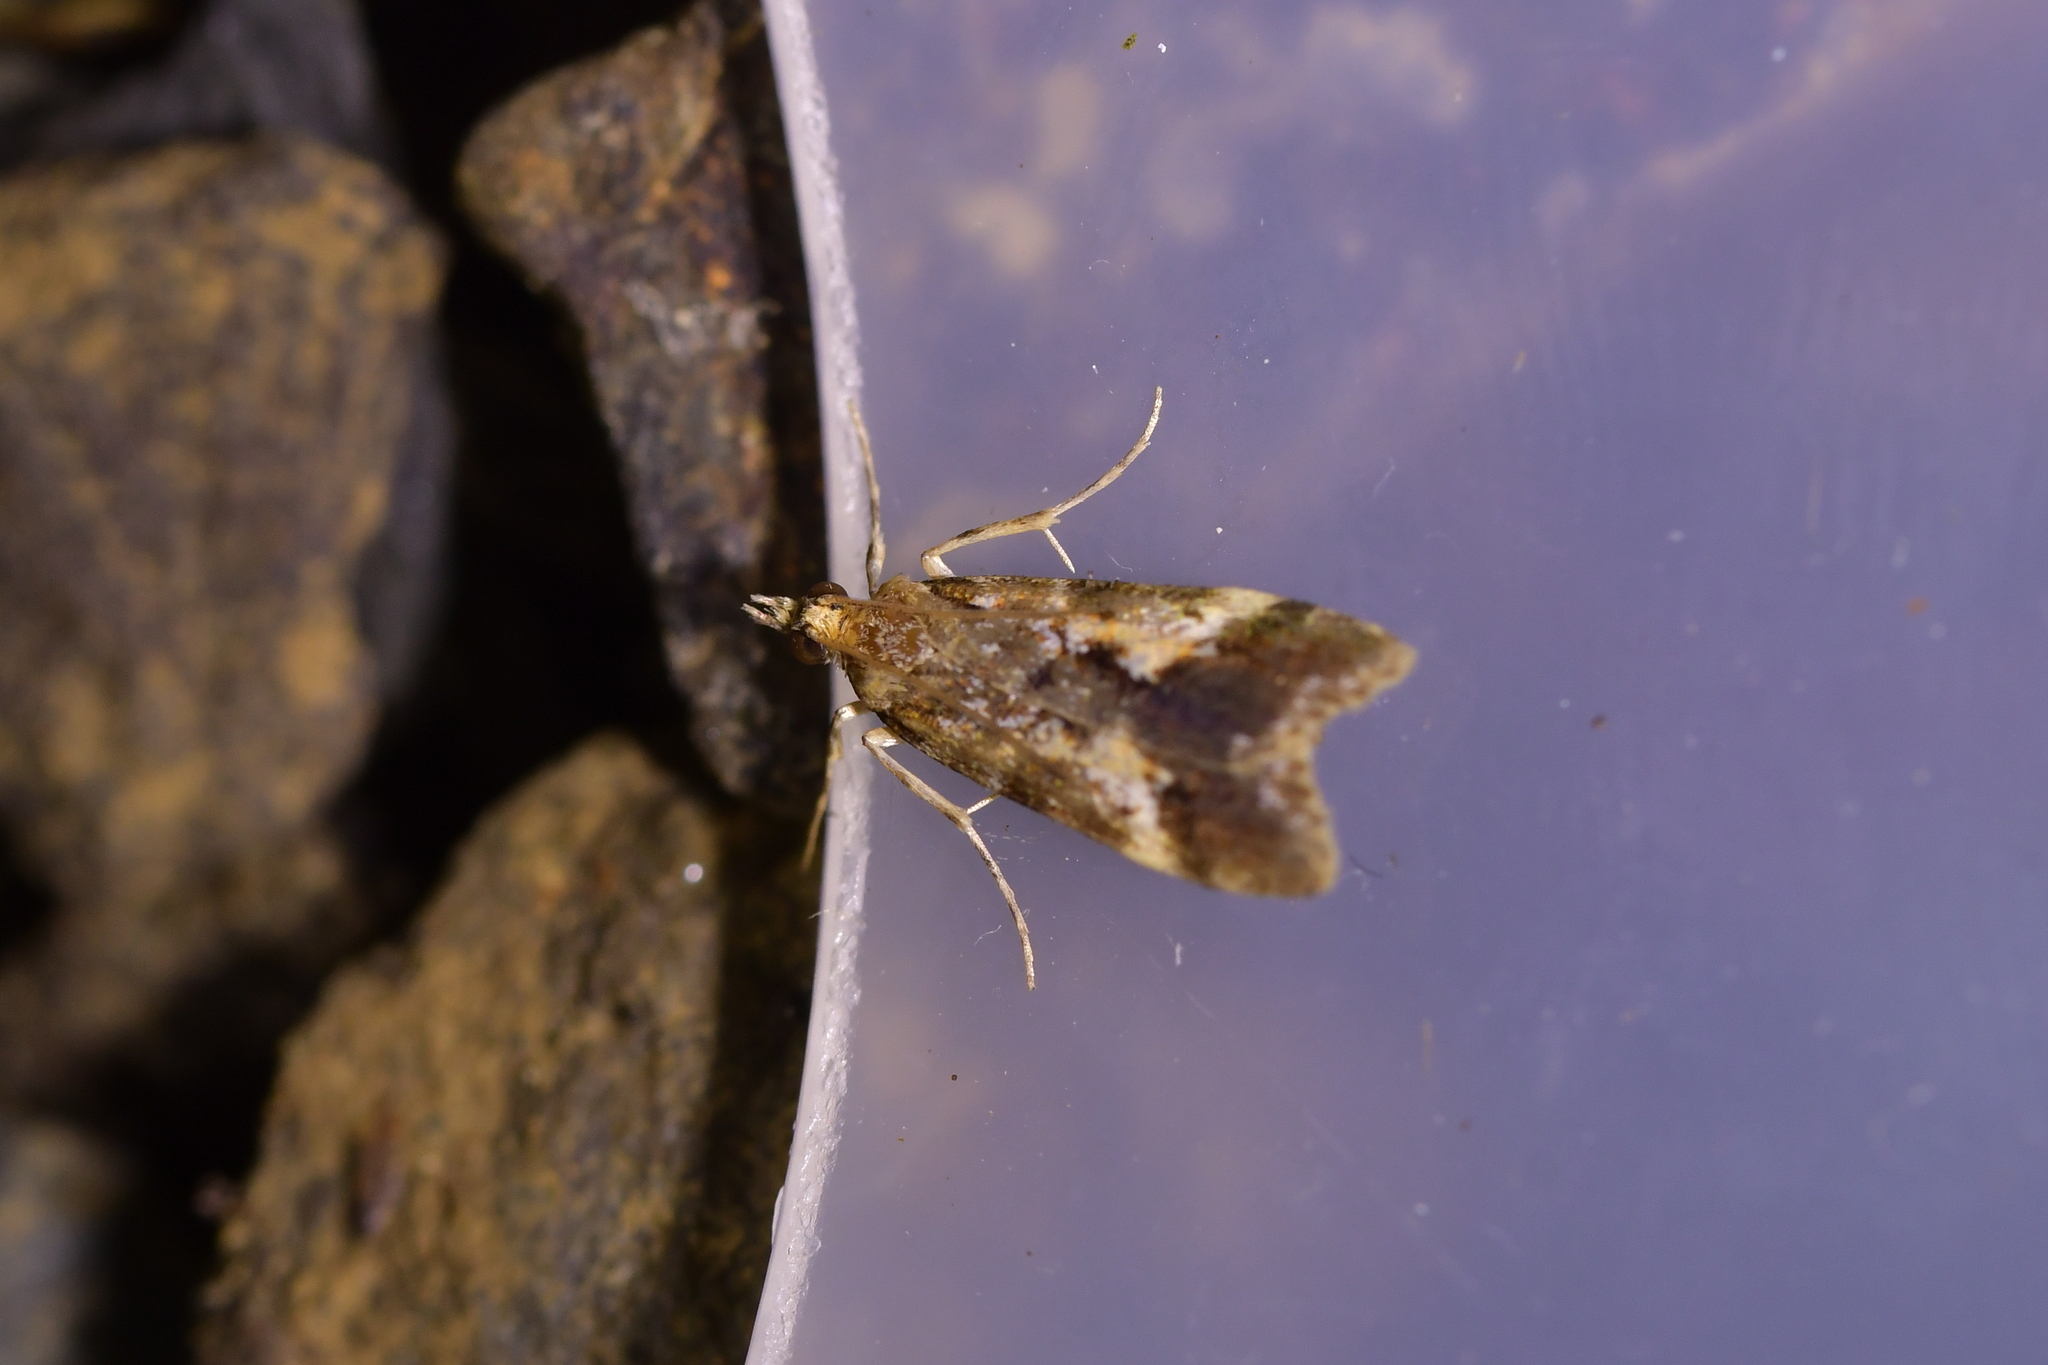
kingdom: Animalia
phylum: Arthropoda
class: Insecta
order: Lepidoptera
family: Crambidae
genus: Eudonia
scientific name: Eudonia characta
